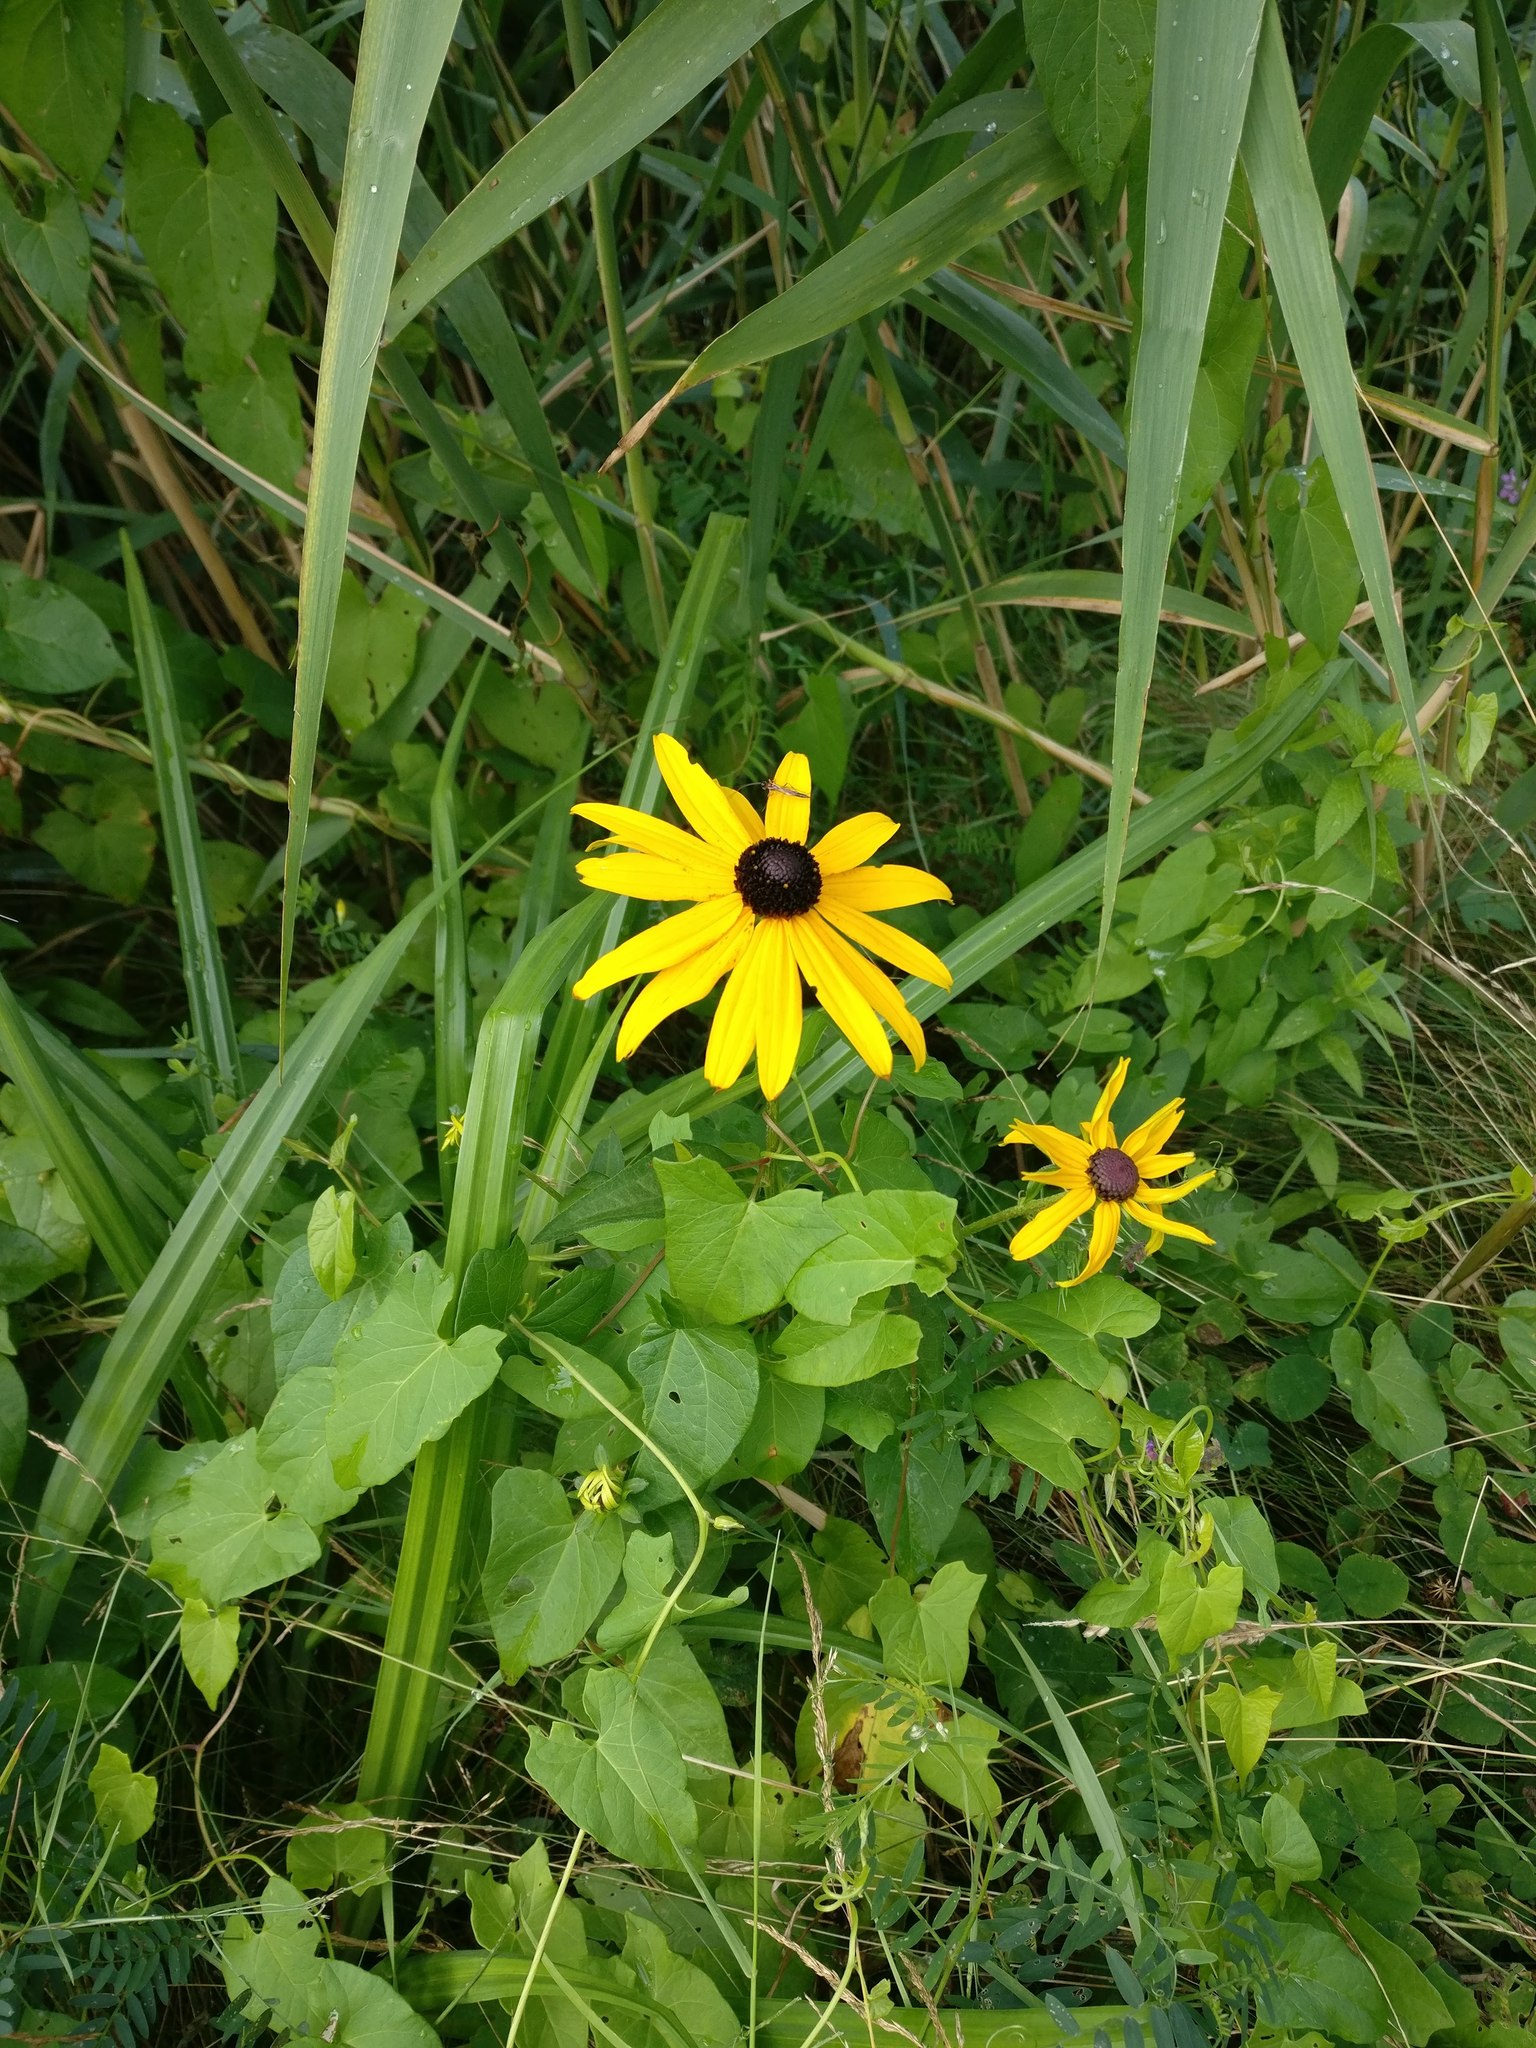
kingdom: Plantae
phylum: Tracheophyta
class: Magnoliopsida
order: Asterales
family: Asteraceae
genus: Rudbeckia
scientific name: Rudbeckia hirta
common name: Black-eyed-susan
